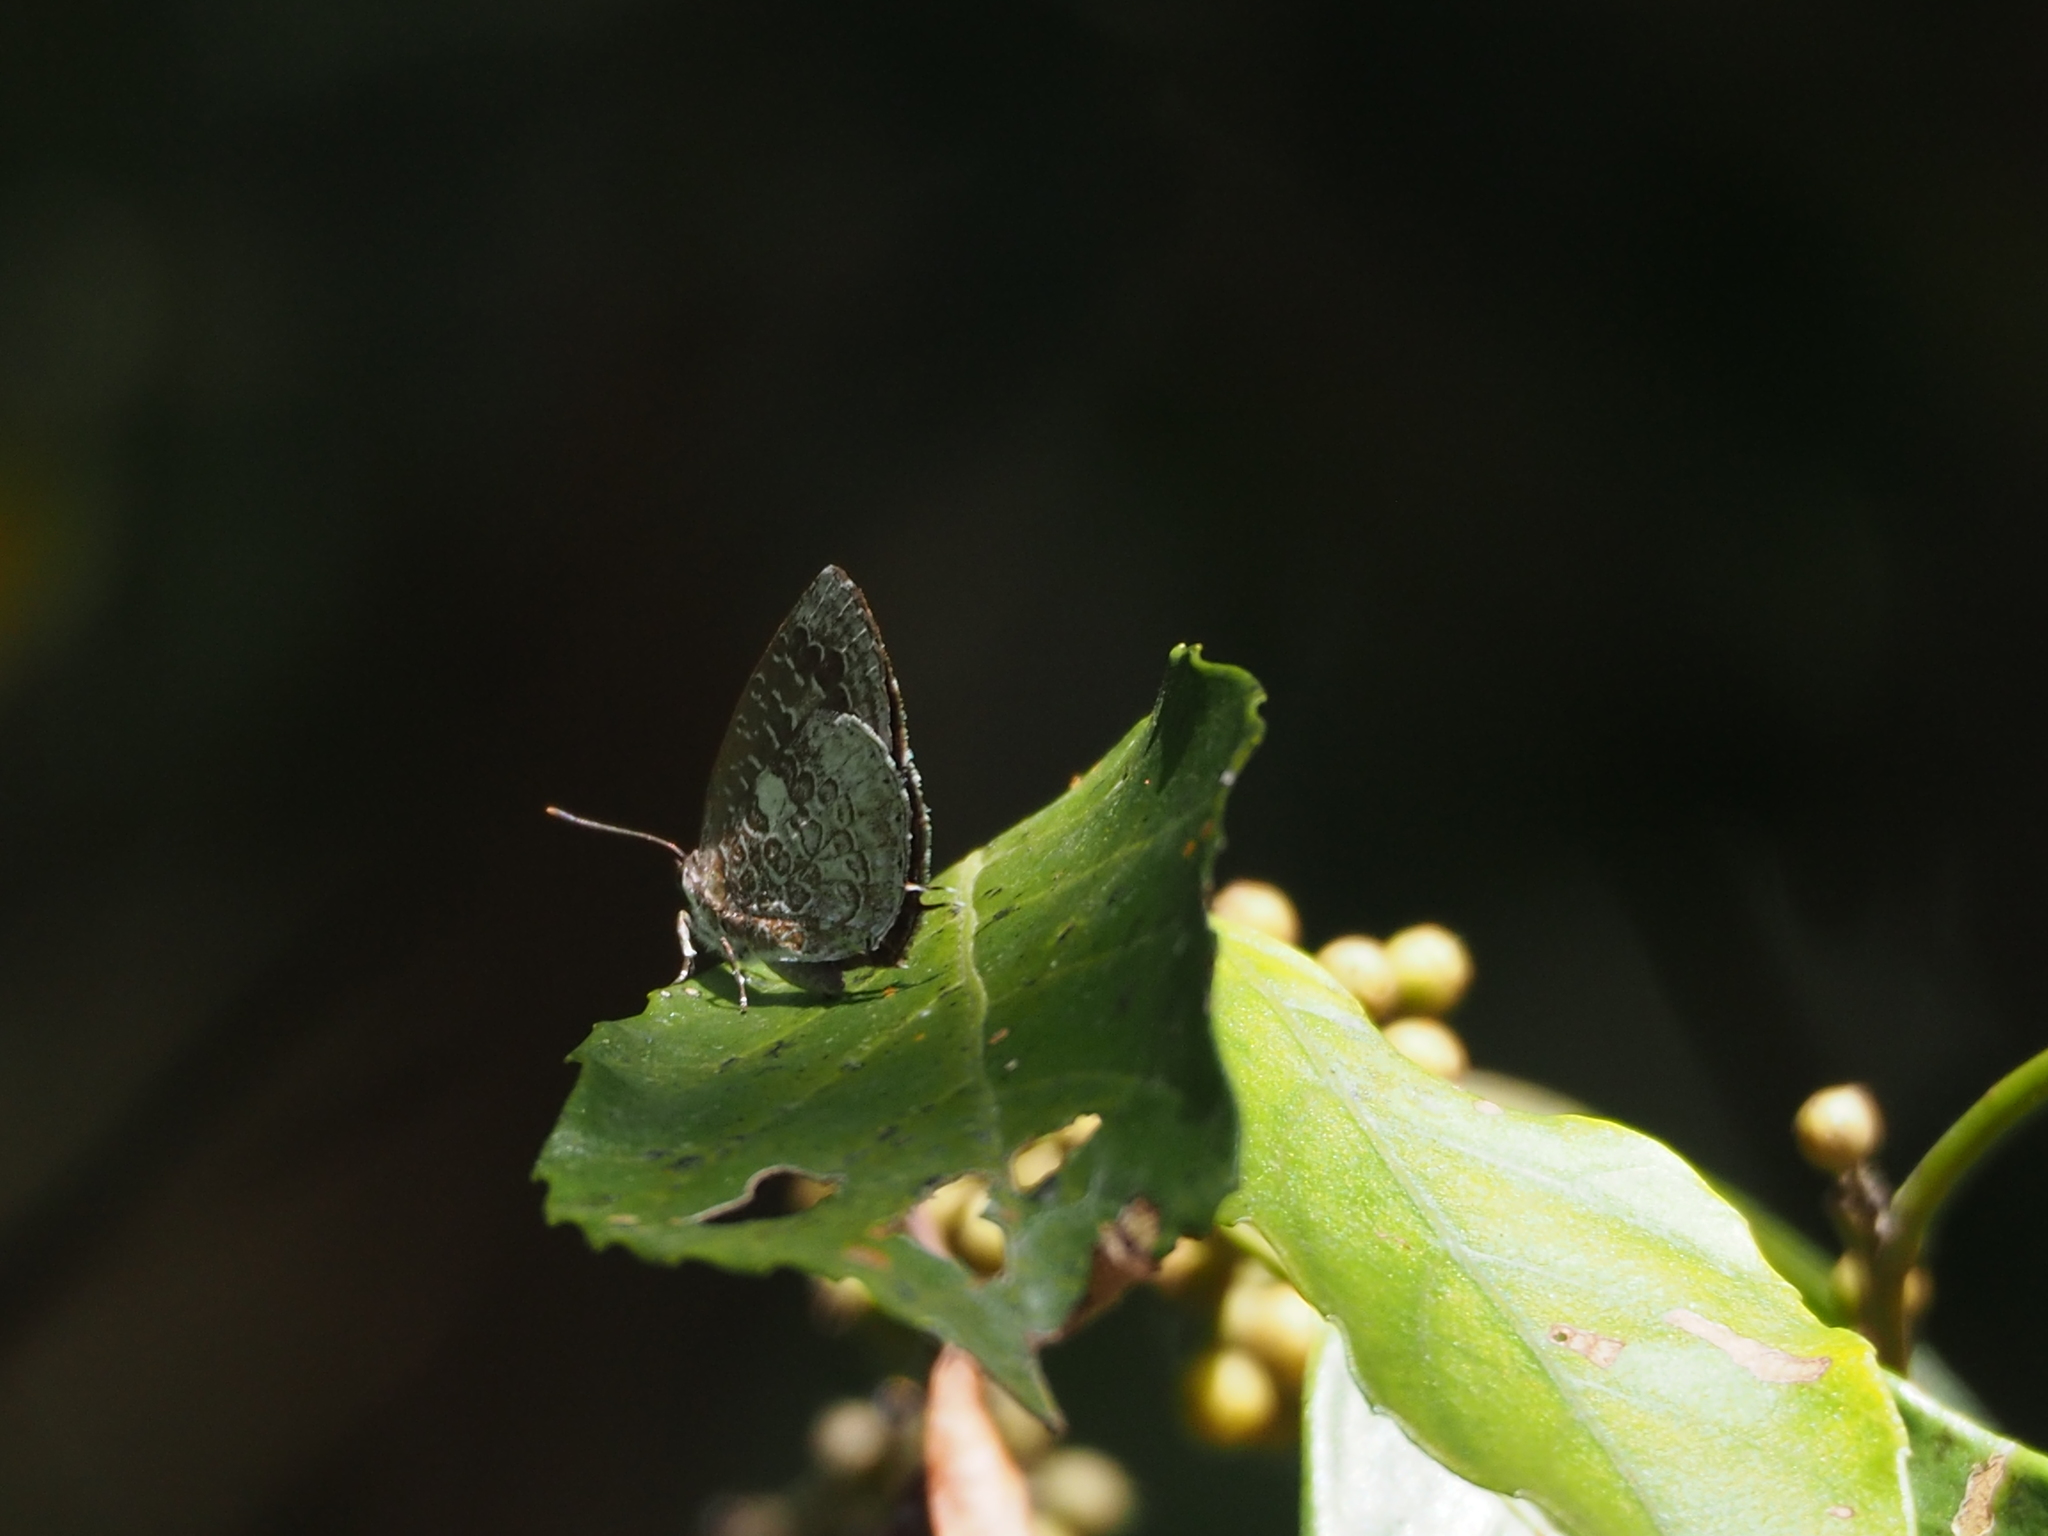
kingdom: Animalia
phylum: Arthropoda
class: Insecta
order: Lepidoptera
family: Lycaenidae
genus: Arhopala
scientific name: Arhopala birmana
